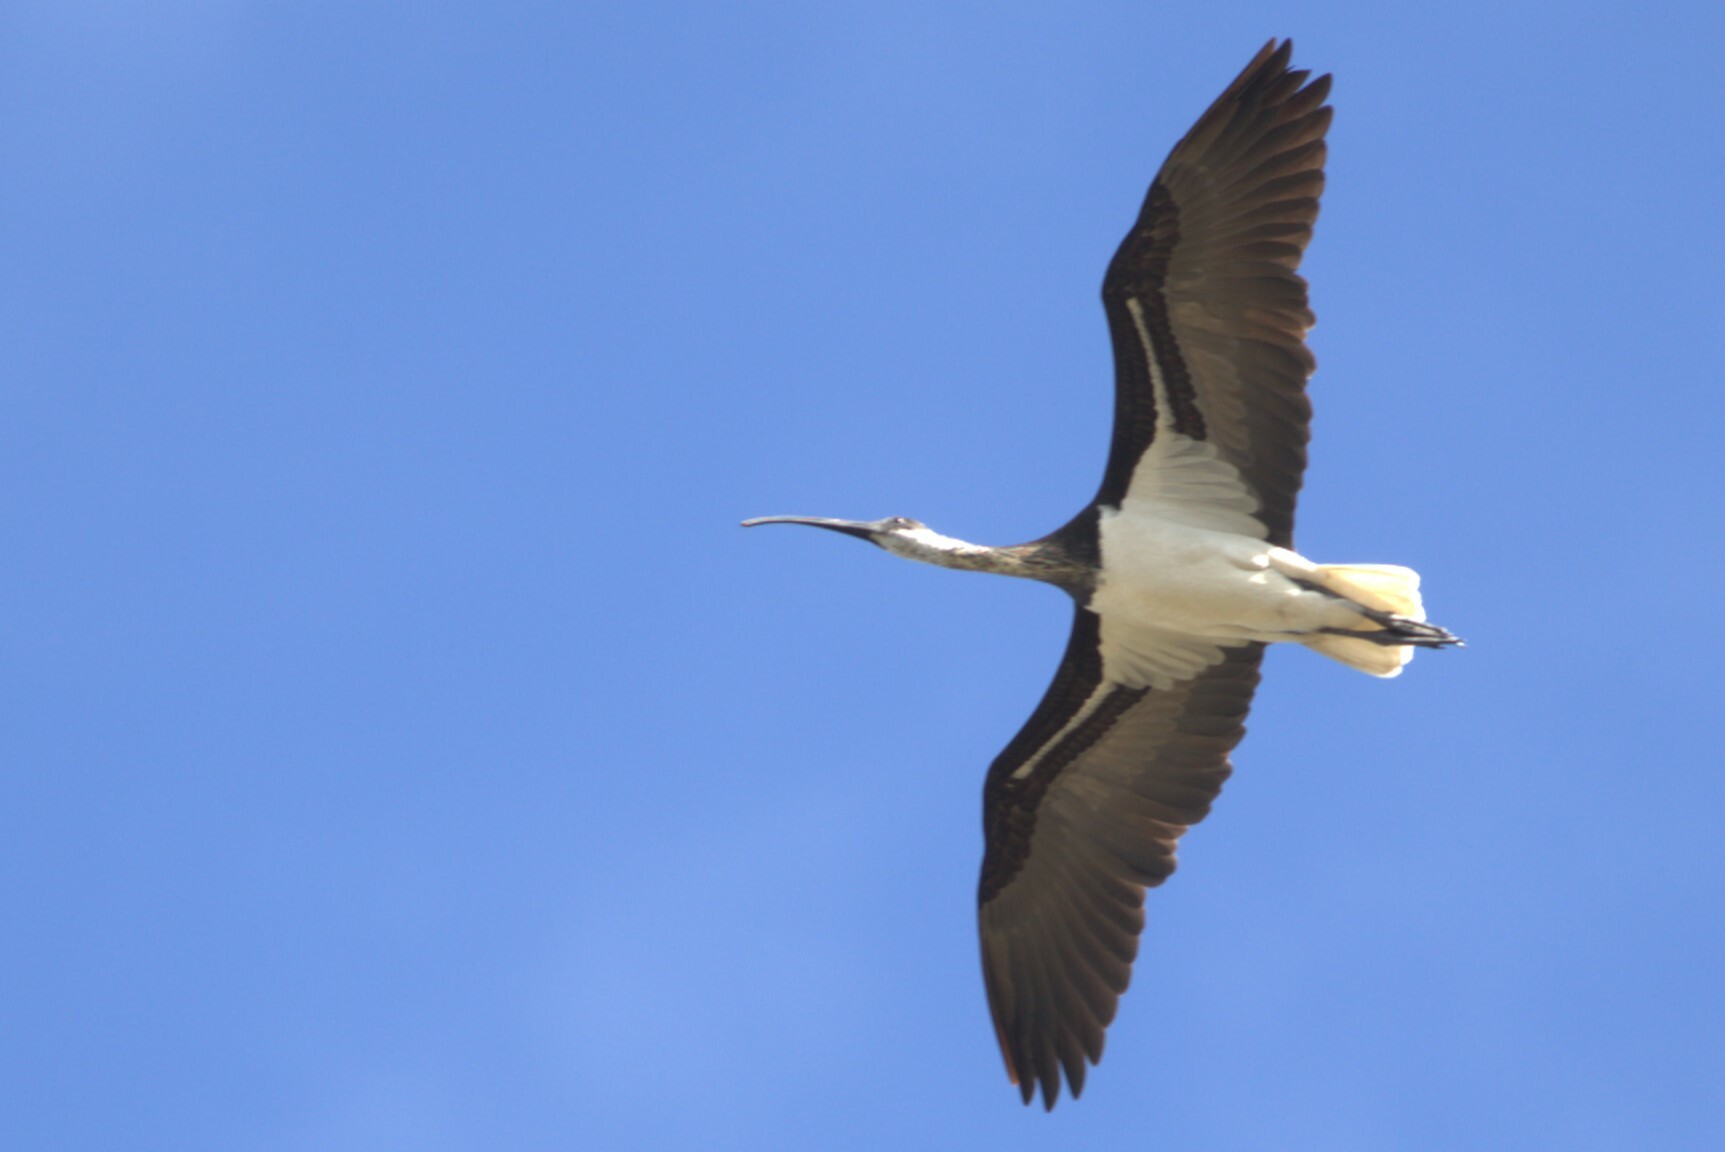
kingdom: Animalia
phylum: Chordata
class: Aves
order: Pelecaniformes
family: Threskiornithidae
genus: Threskiornis
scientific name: Threskiornis spinicollis
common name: Straw-necked ibis
